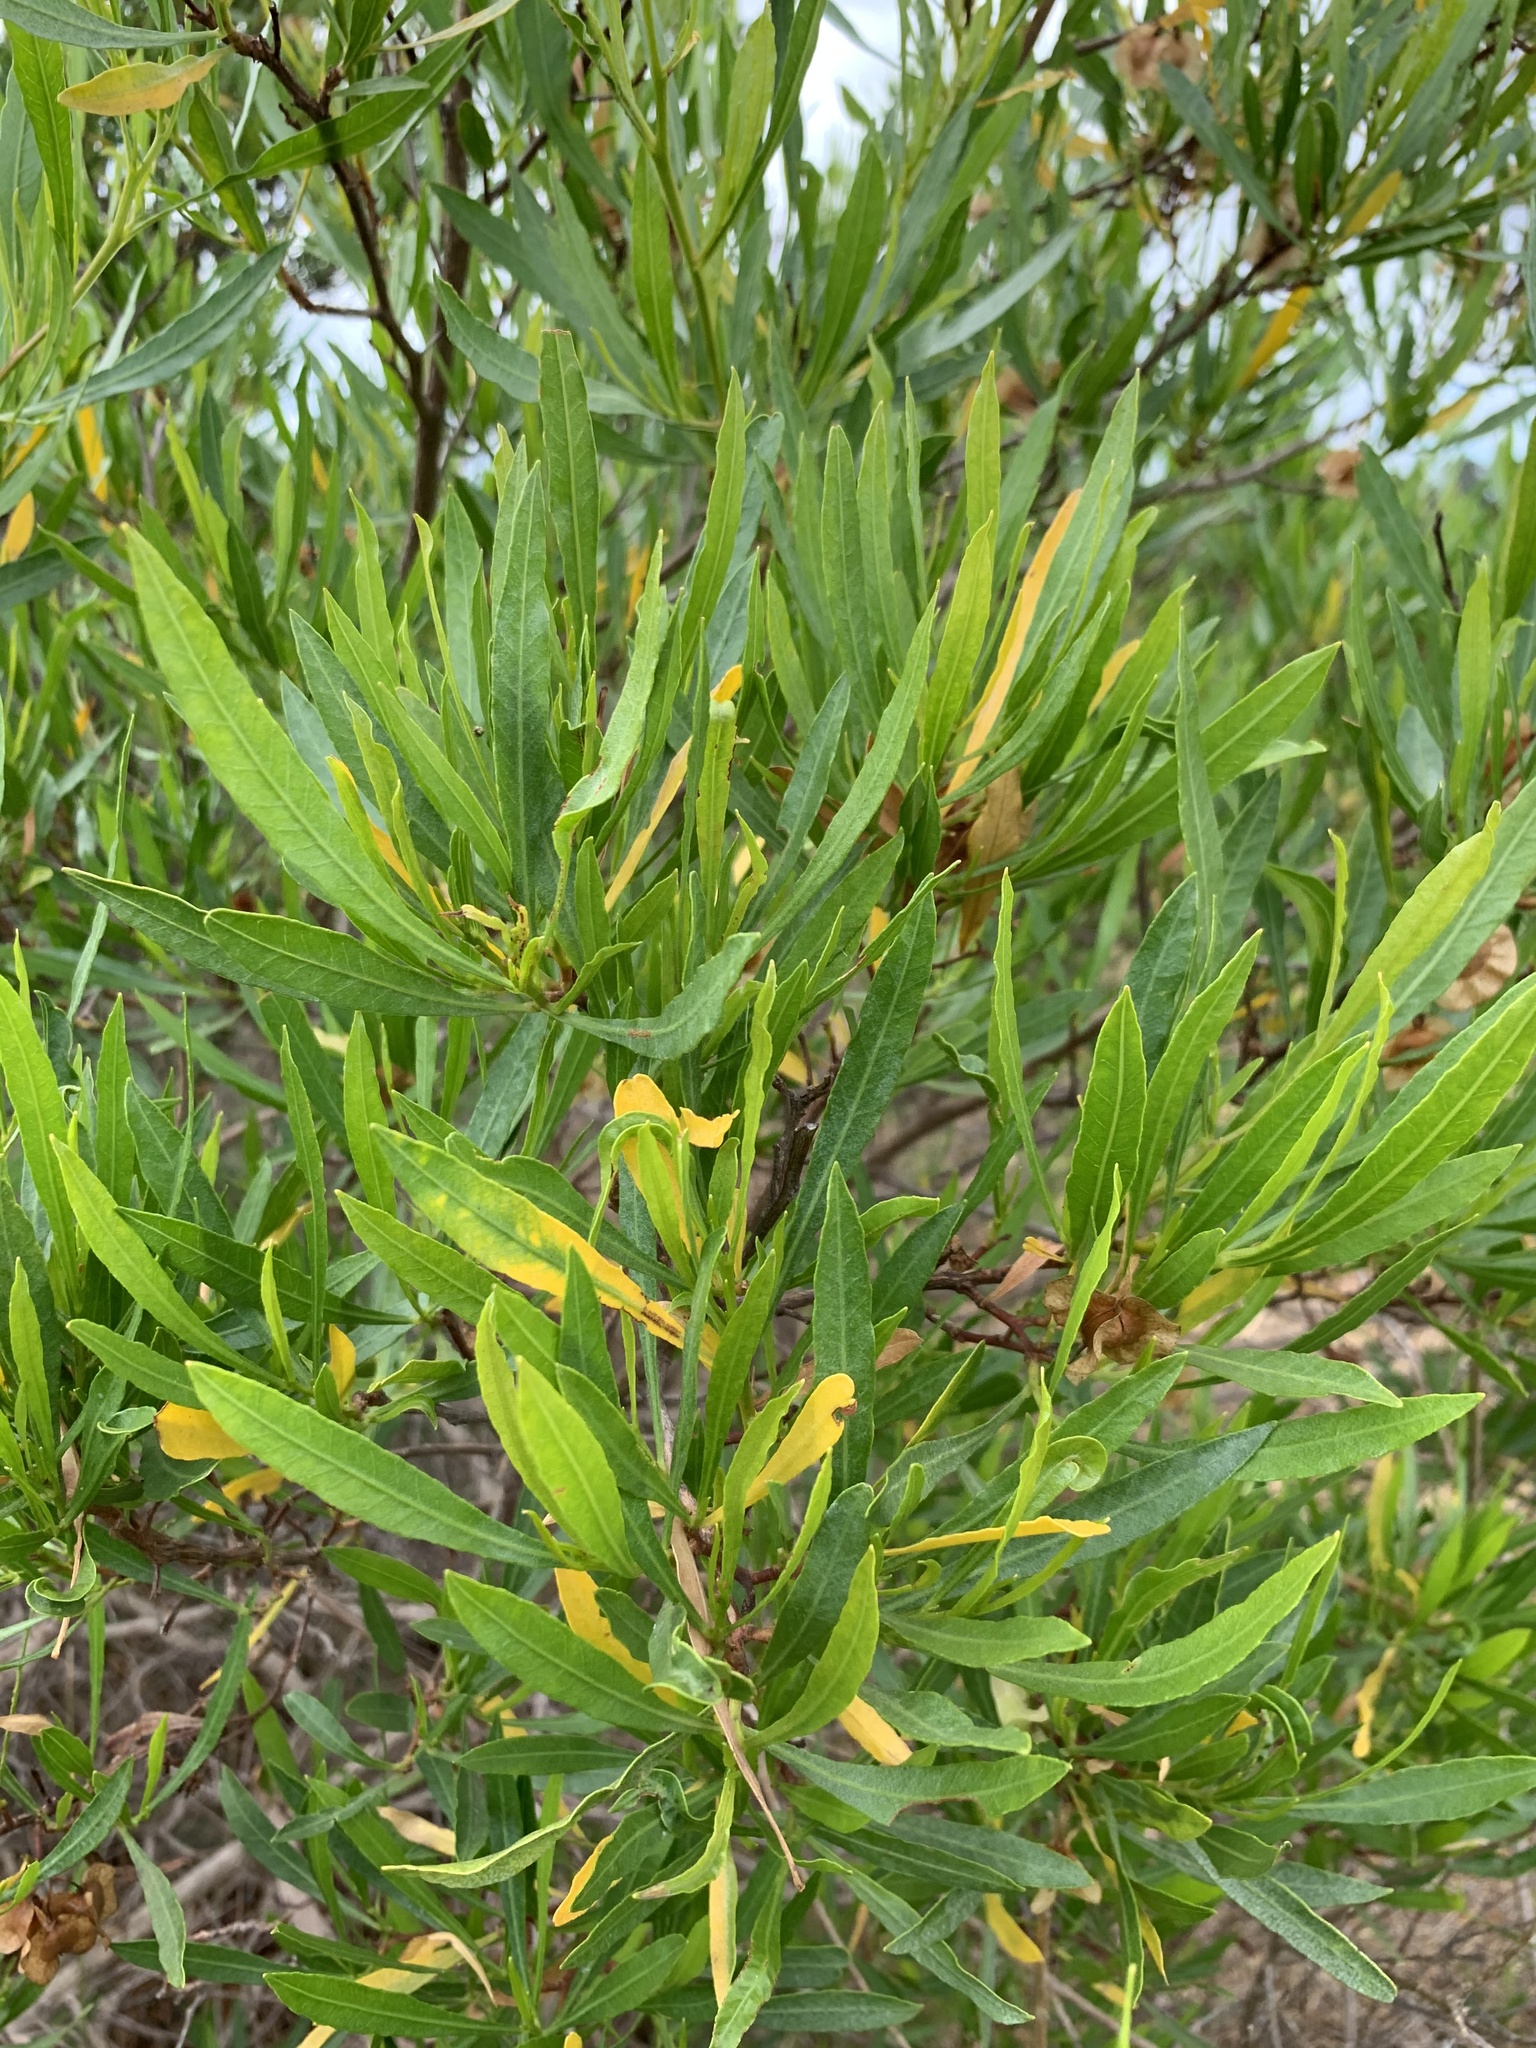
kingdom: Plantae
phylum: Tracheophyta
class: Magnoliopsida
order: Sapindales
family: Sapindaceae
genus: Dodonaea
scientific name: Dodonaea viscosa
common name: Hopbush
